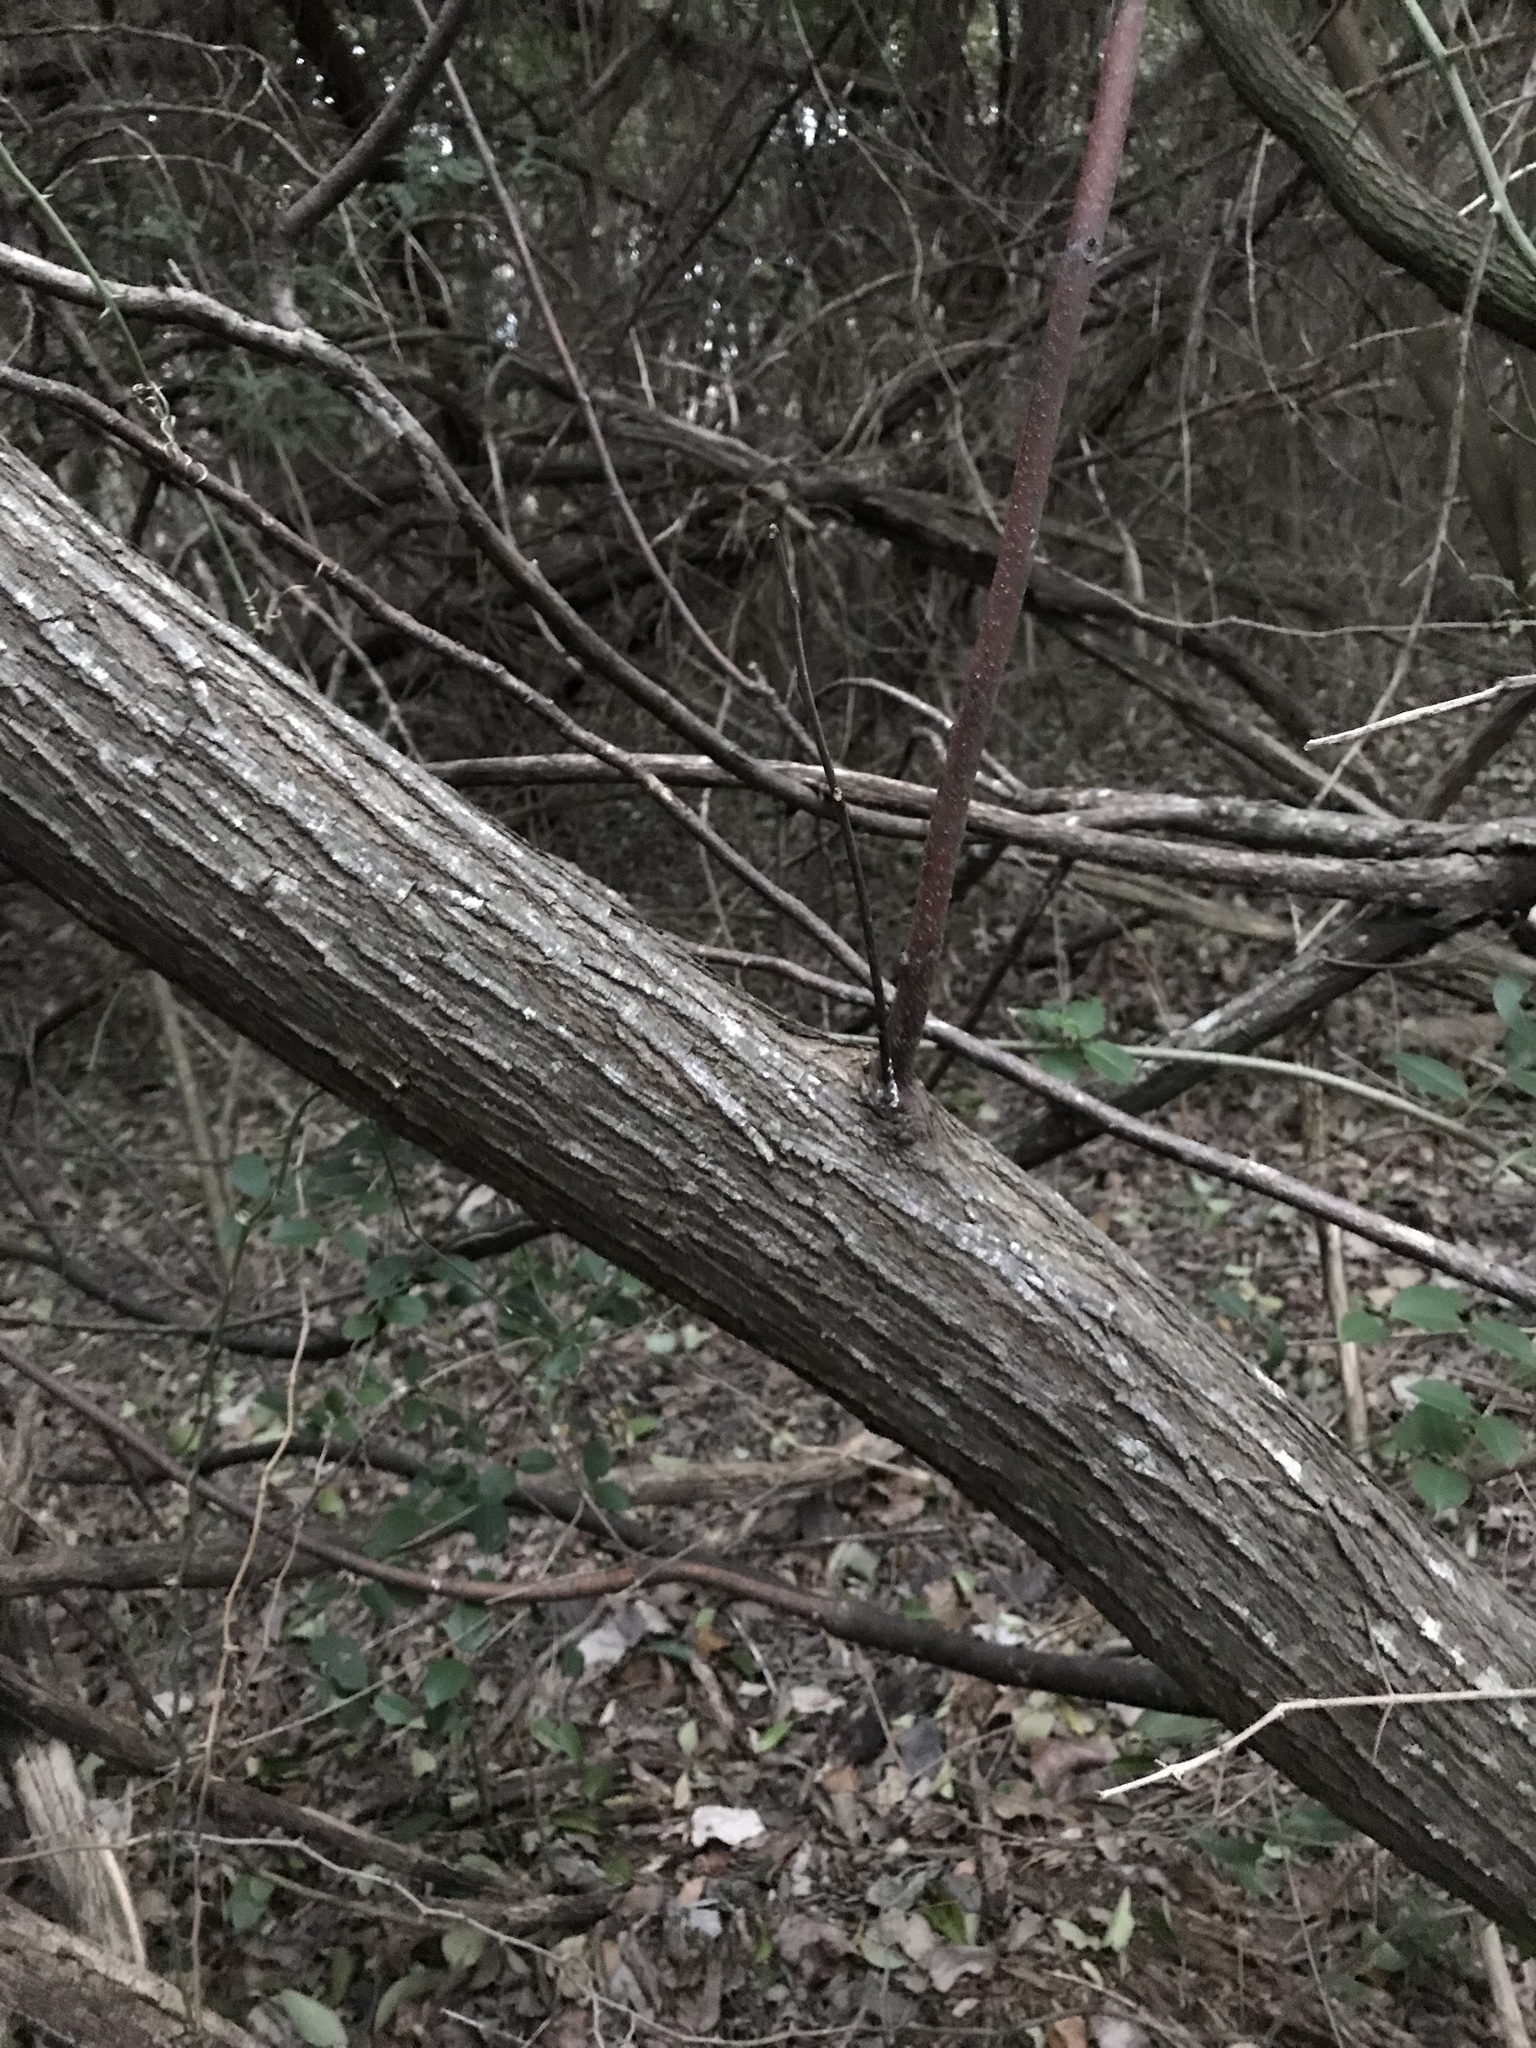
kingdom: Plantae
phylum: Tracheophyta
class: Magnoliopsida
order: Sapindales
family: Meliaceae
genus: Melia
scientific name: Melia azedarach
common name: Chinaberrytree
